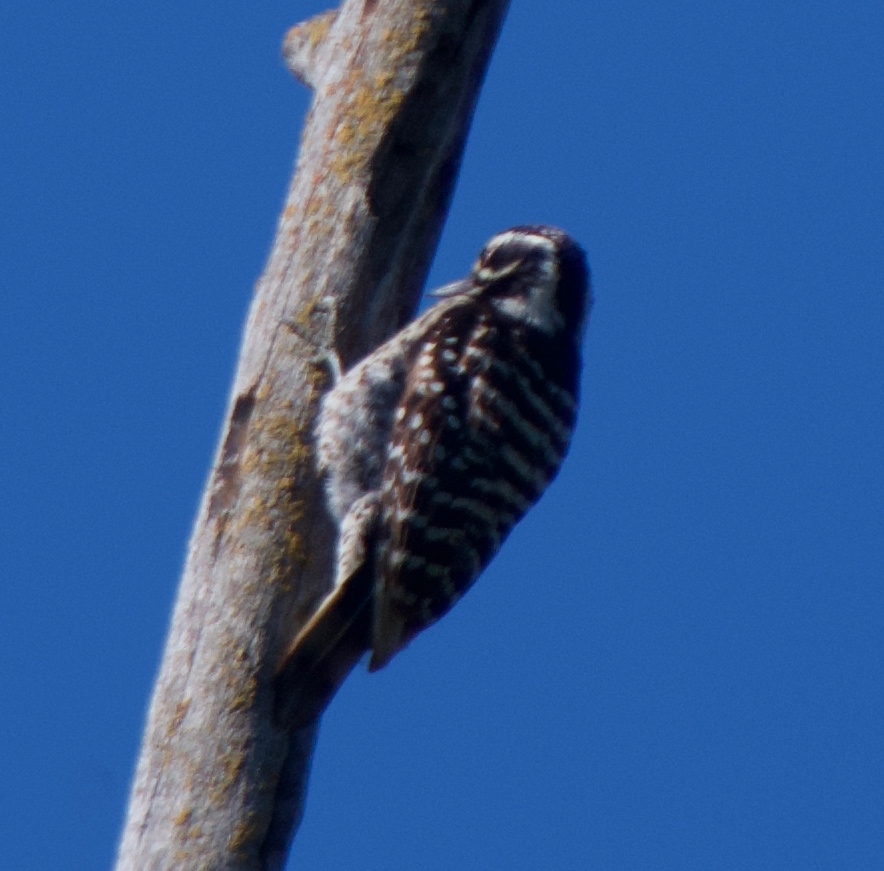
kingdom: Animalia
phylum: Chordata
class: Aves
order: Piciformes
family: Picidae
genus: Dryobates
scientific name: Dryobates nuttallii
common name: Nuttall's woodpecker
